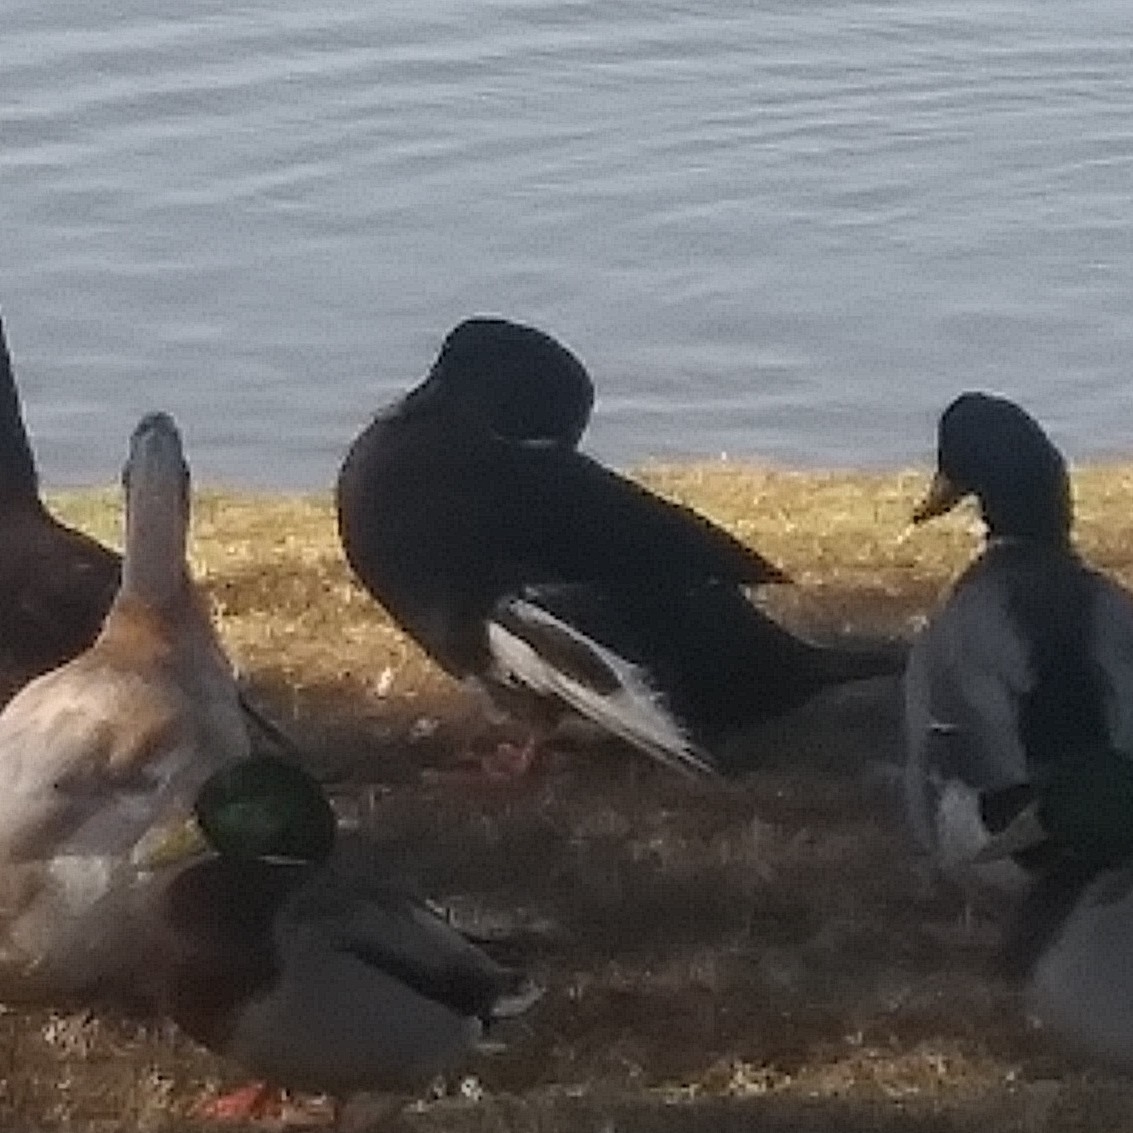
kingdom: Animalia
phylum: Chordata
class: Aves
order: Anseriformes
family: Anatidae
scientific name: Anatidae
